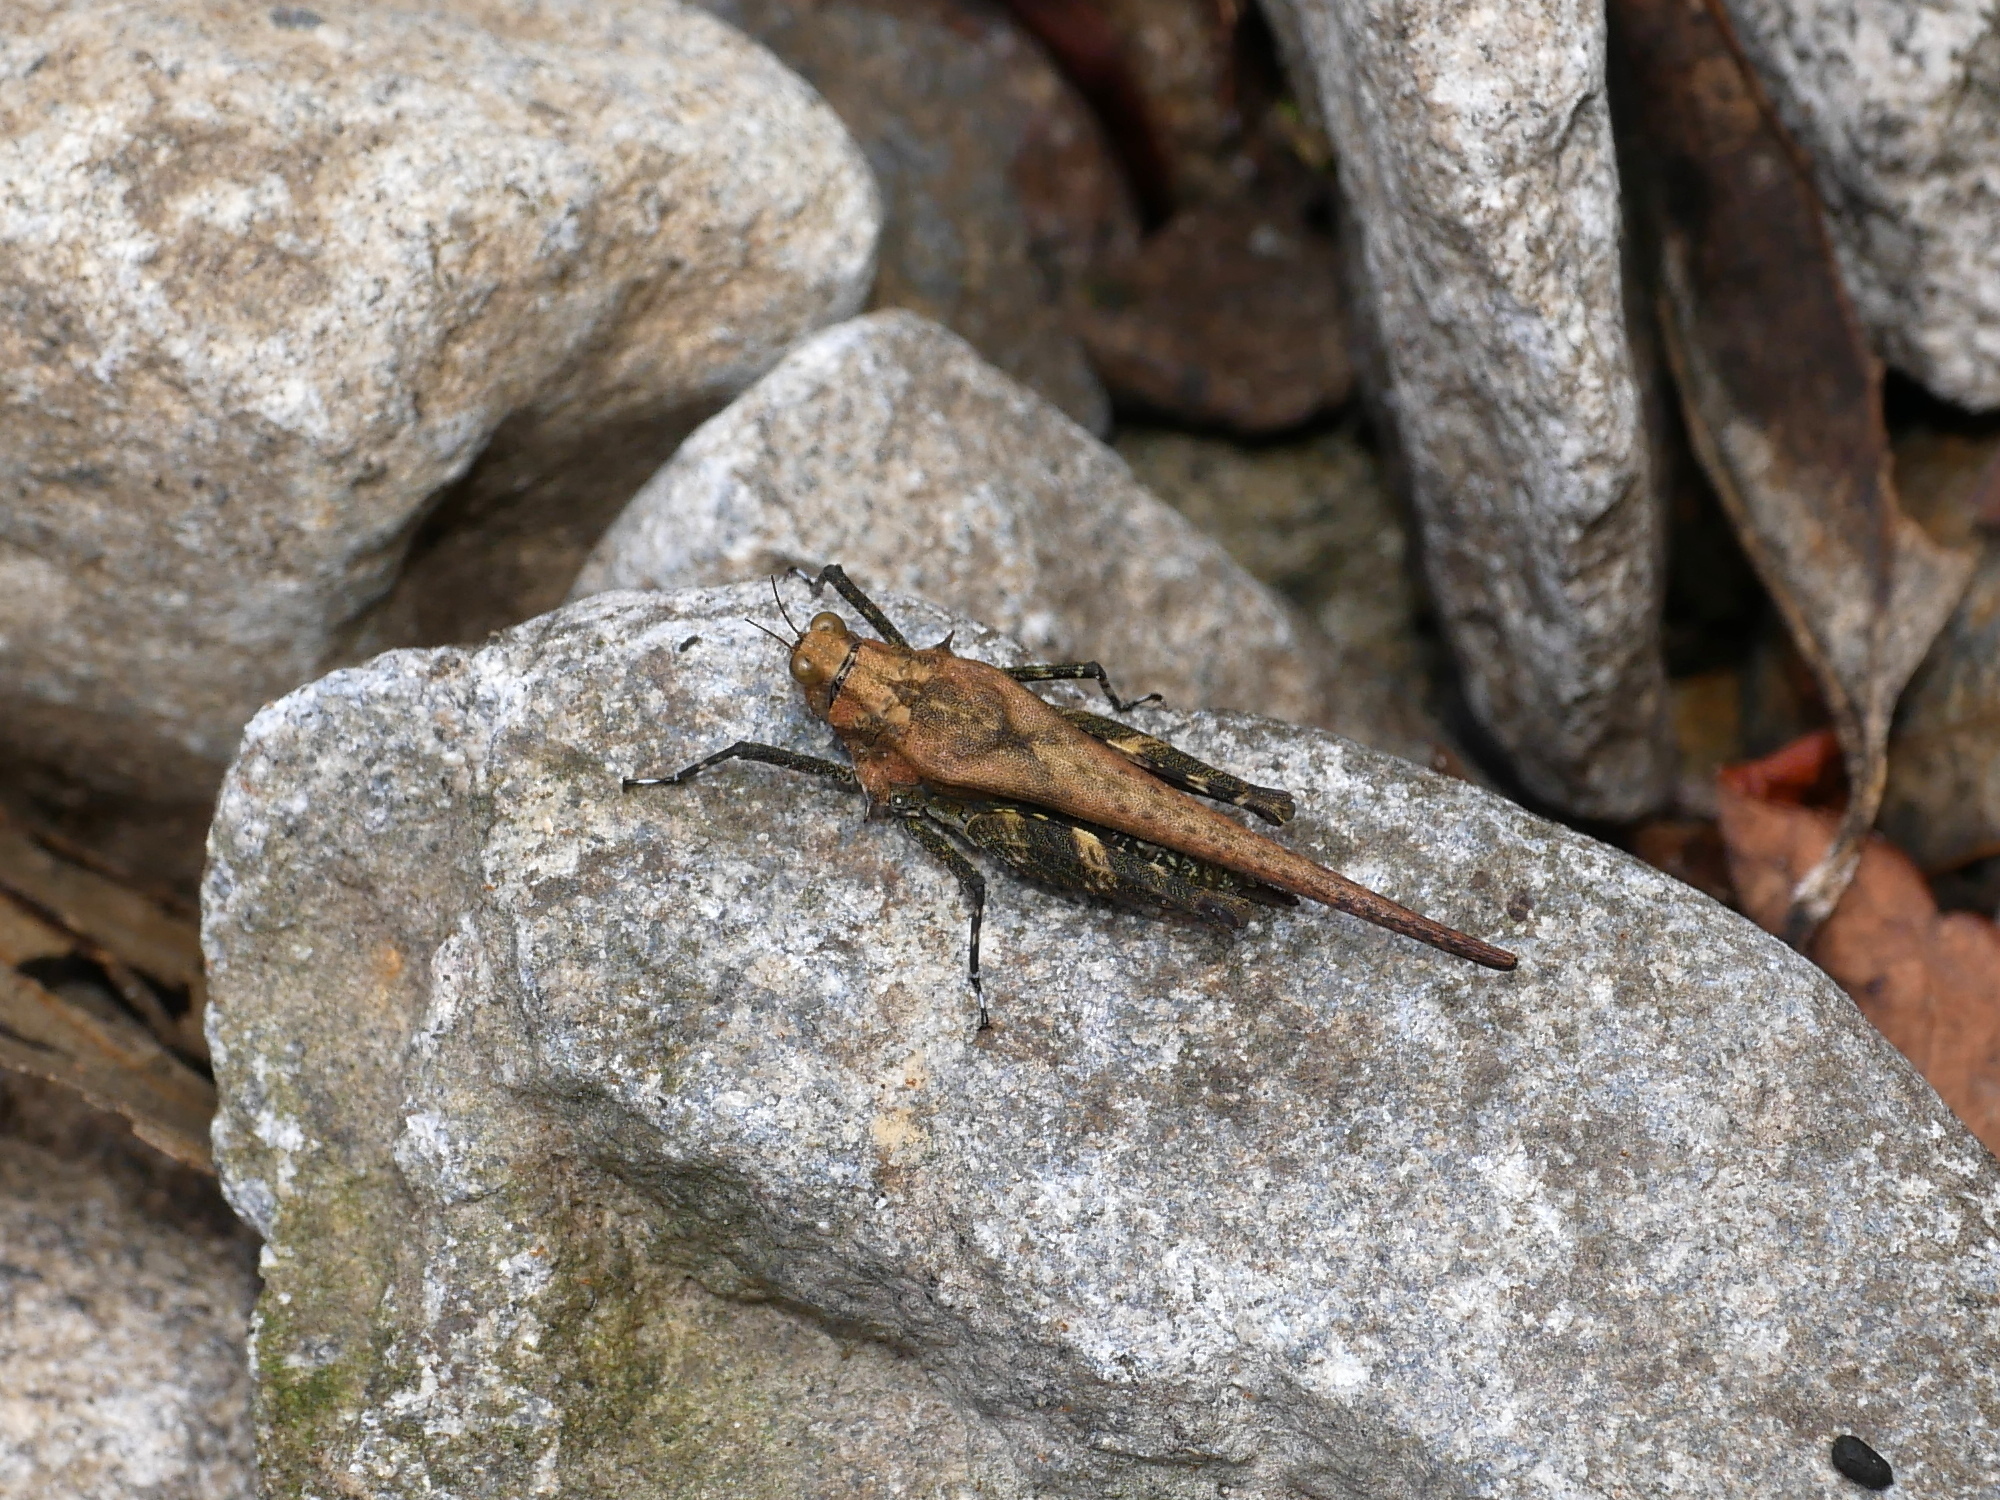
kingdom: Animalia
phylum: Arthropoda
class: Insecta
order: Orthoptera
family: Tetrigidae
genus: Criotettix
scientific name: Criotettix bispinosus
